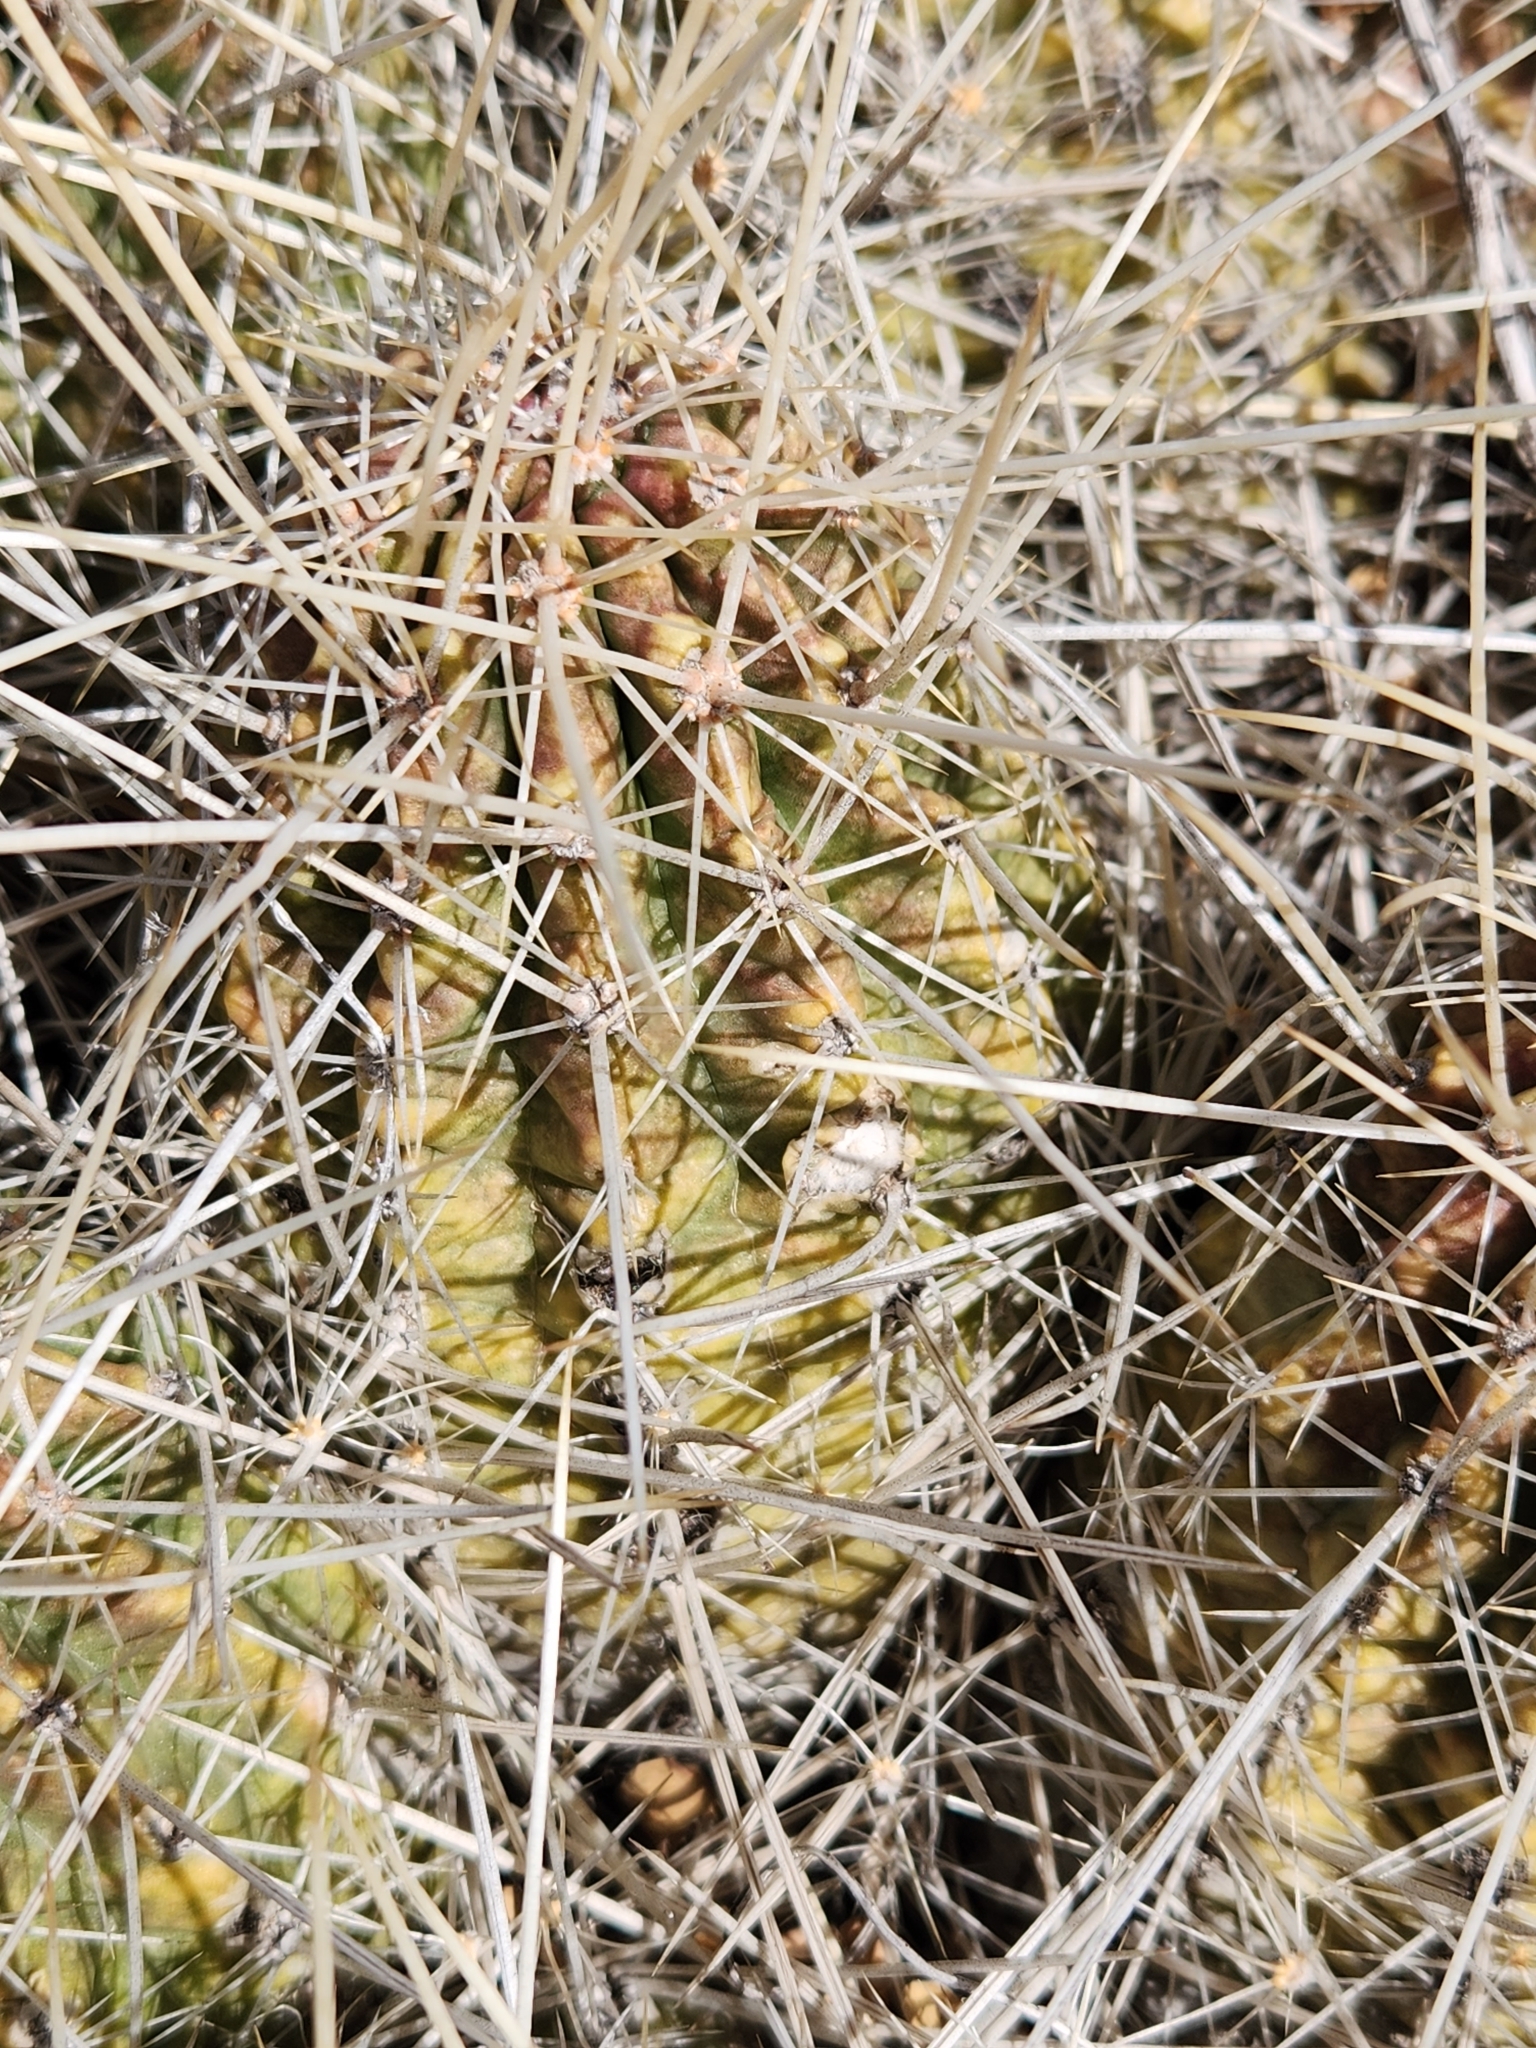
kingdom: Plantae
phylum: Tracheophyta
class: Magnoliopsida
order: Caryophyllales
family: Cactaceae
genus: Echinocereus
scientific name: Echinocereus stramineus
